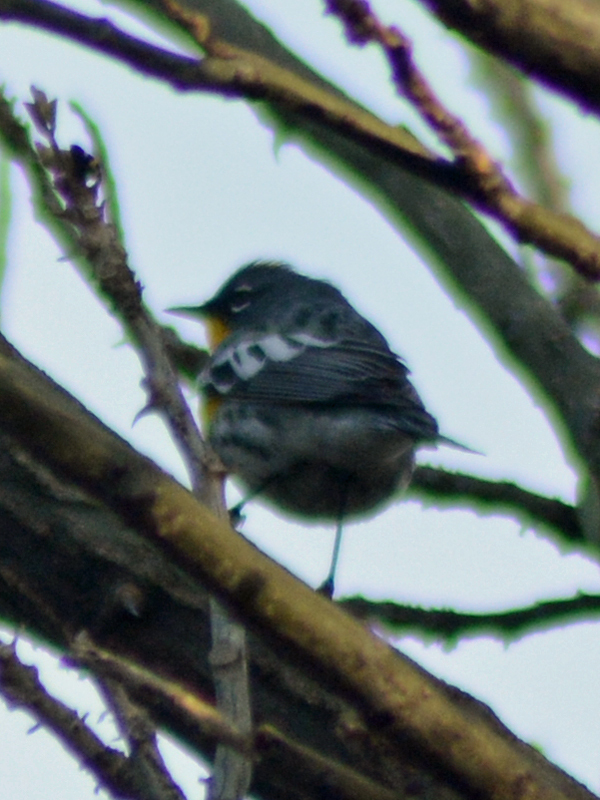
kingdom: Animalia
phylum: Chordata
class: Aves
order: Passeriformes
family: Parulidae
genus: Setophaga
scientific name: Setophaga coronata
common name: Myrtle warbler
